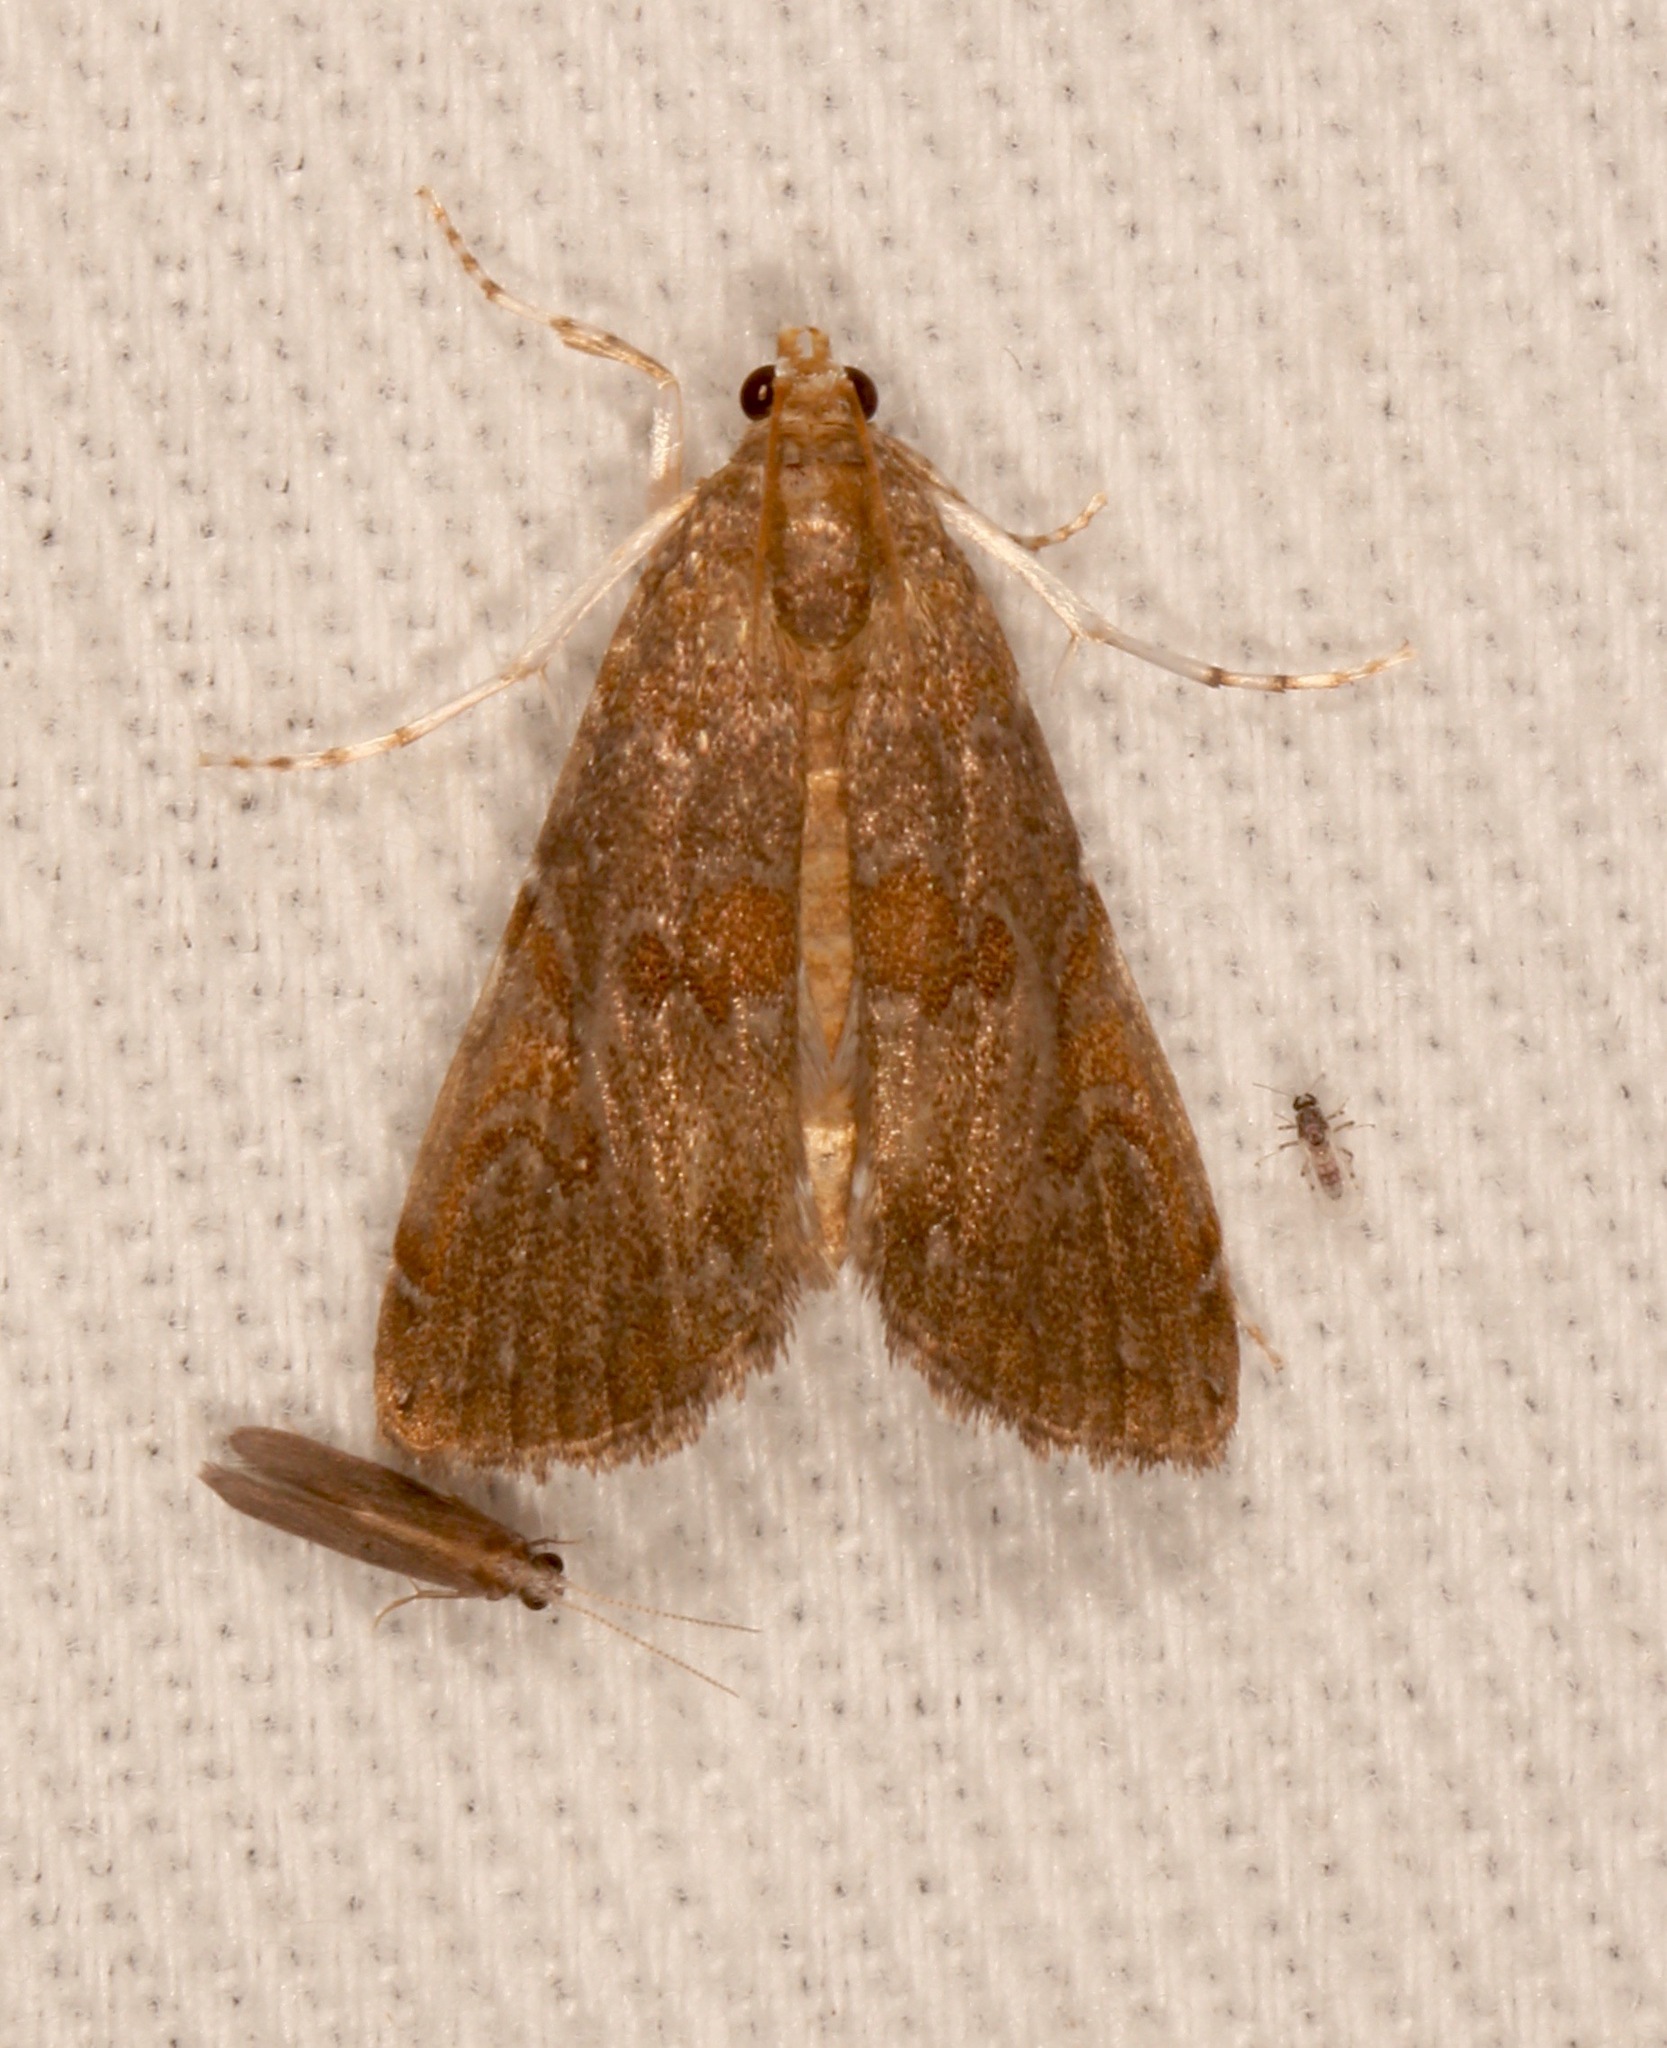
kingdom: Animalia
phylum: Arthropoda
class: Insecta
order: Lepidoptera
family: Crambidae
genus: Elophila
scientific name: Elophila gyralis
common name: Waterlily borer moth
